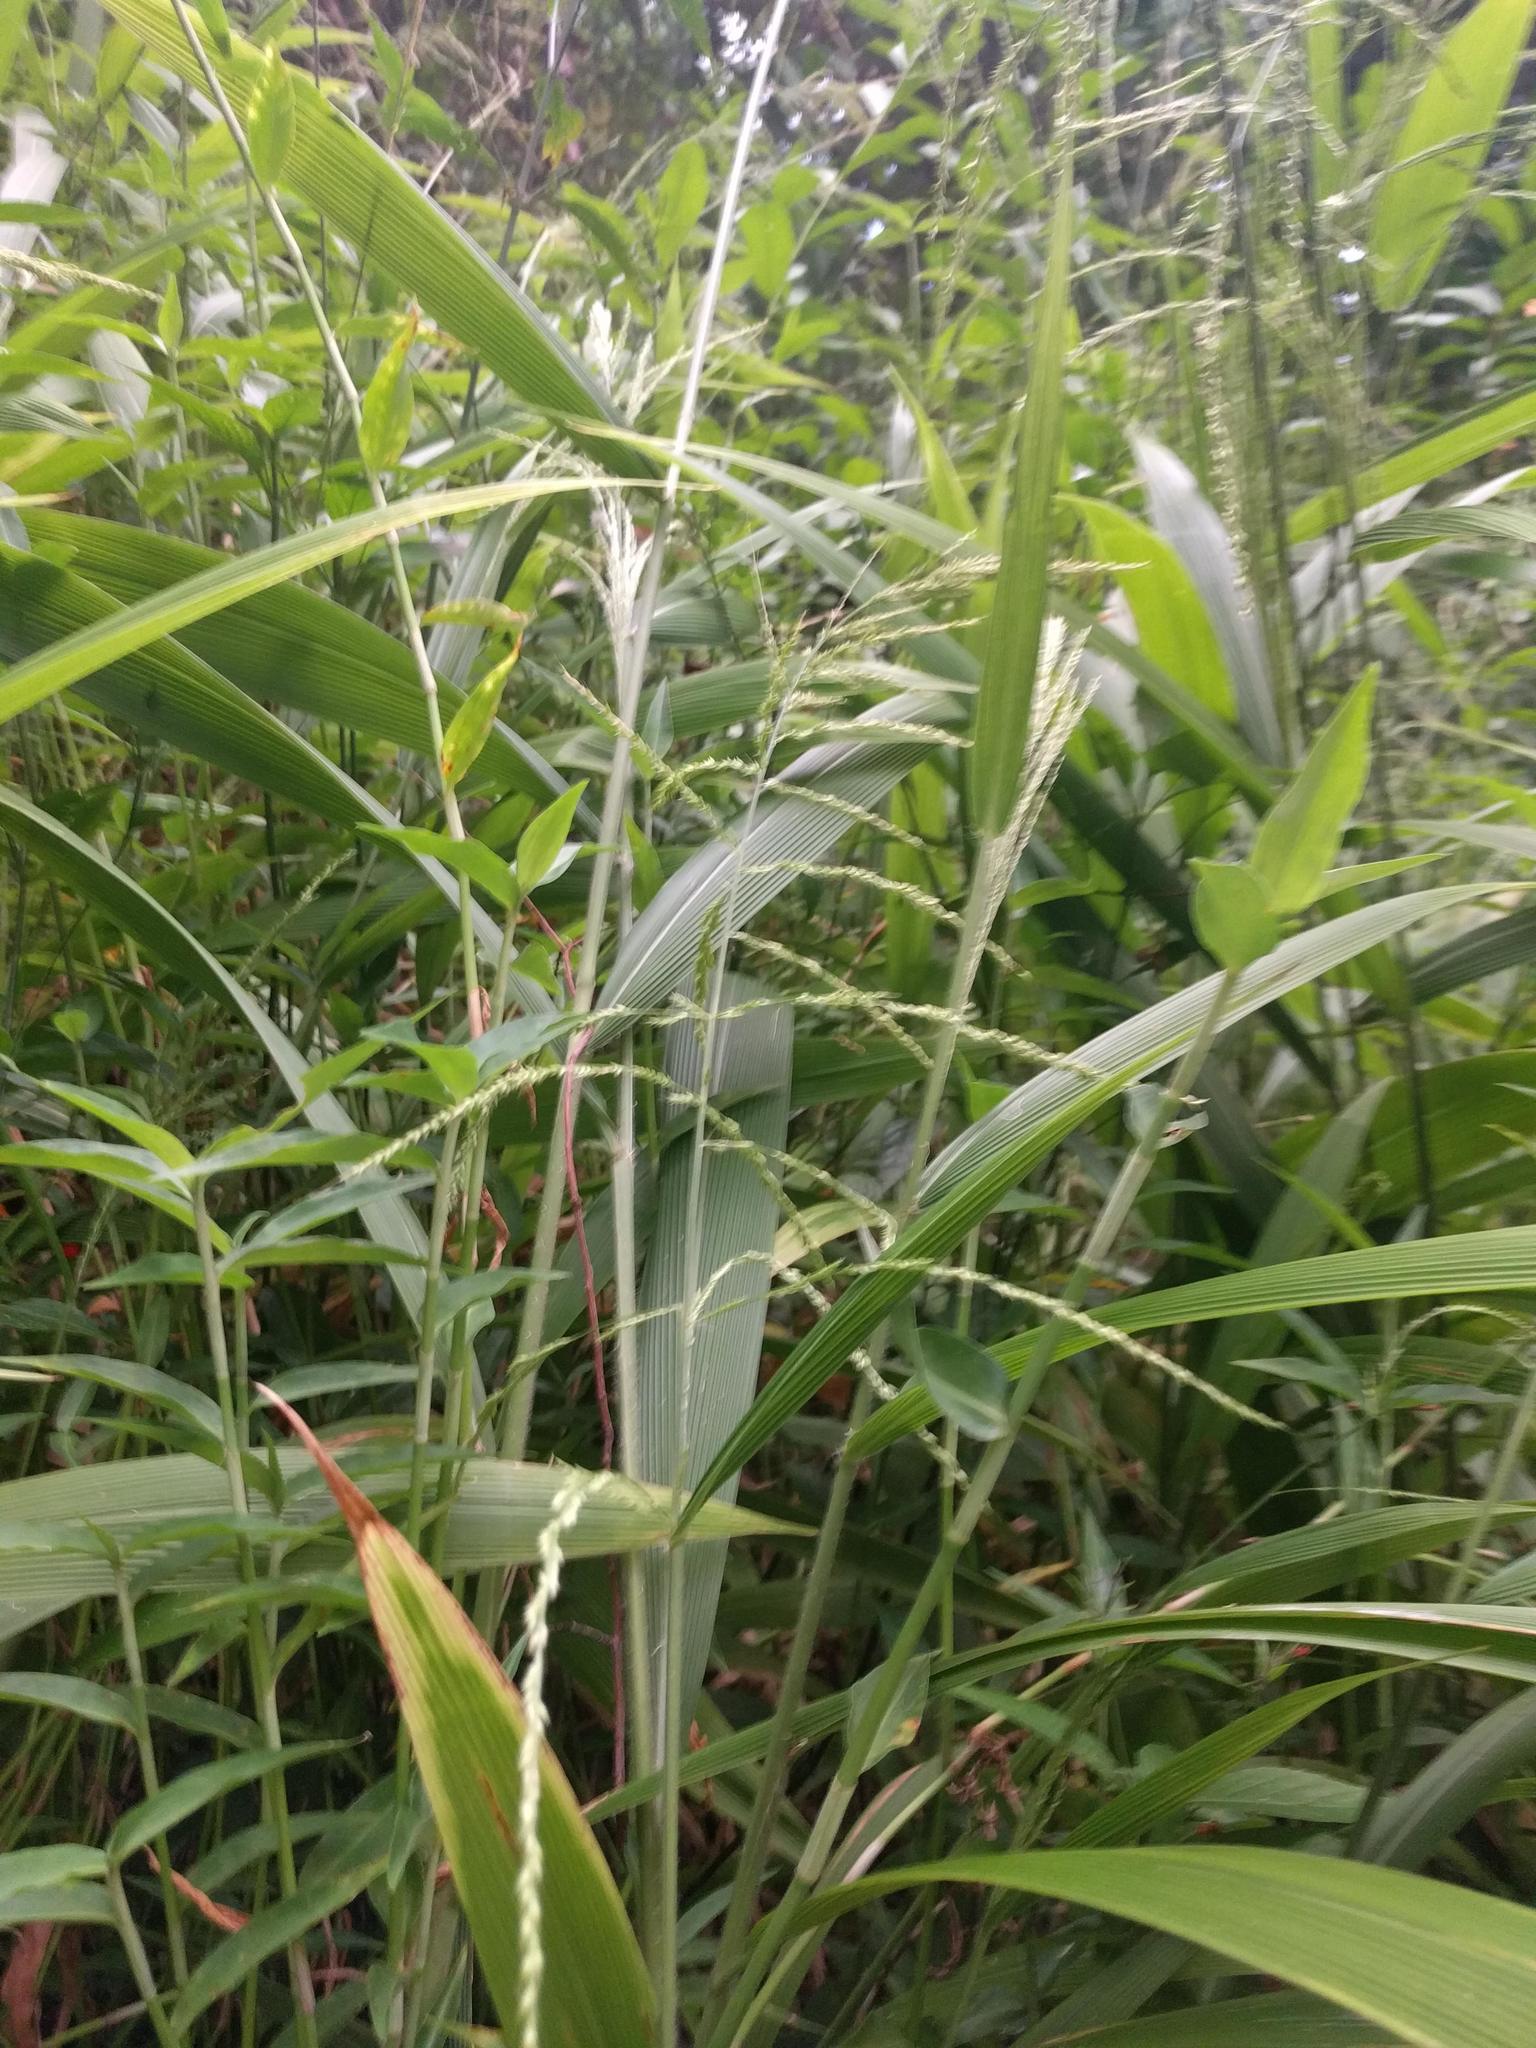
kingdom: Plantae
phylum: Tracheophyta
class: Liliopsida
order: Poales
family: Poaceae
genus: Setaria
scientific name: Setaria palmifolia
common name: Broadleaved bristlegrass
